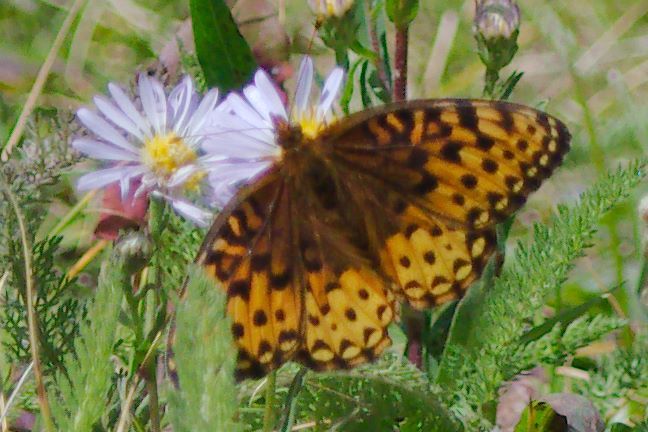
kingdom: Animalia
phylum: Arthropoda
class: Insecta
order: Lepidoptera
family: Nymphalidae
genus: Speyeria
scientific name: Speyeria atlantis
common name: Atlantis fritillary
